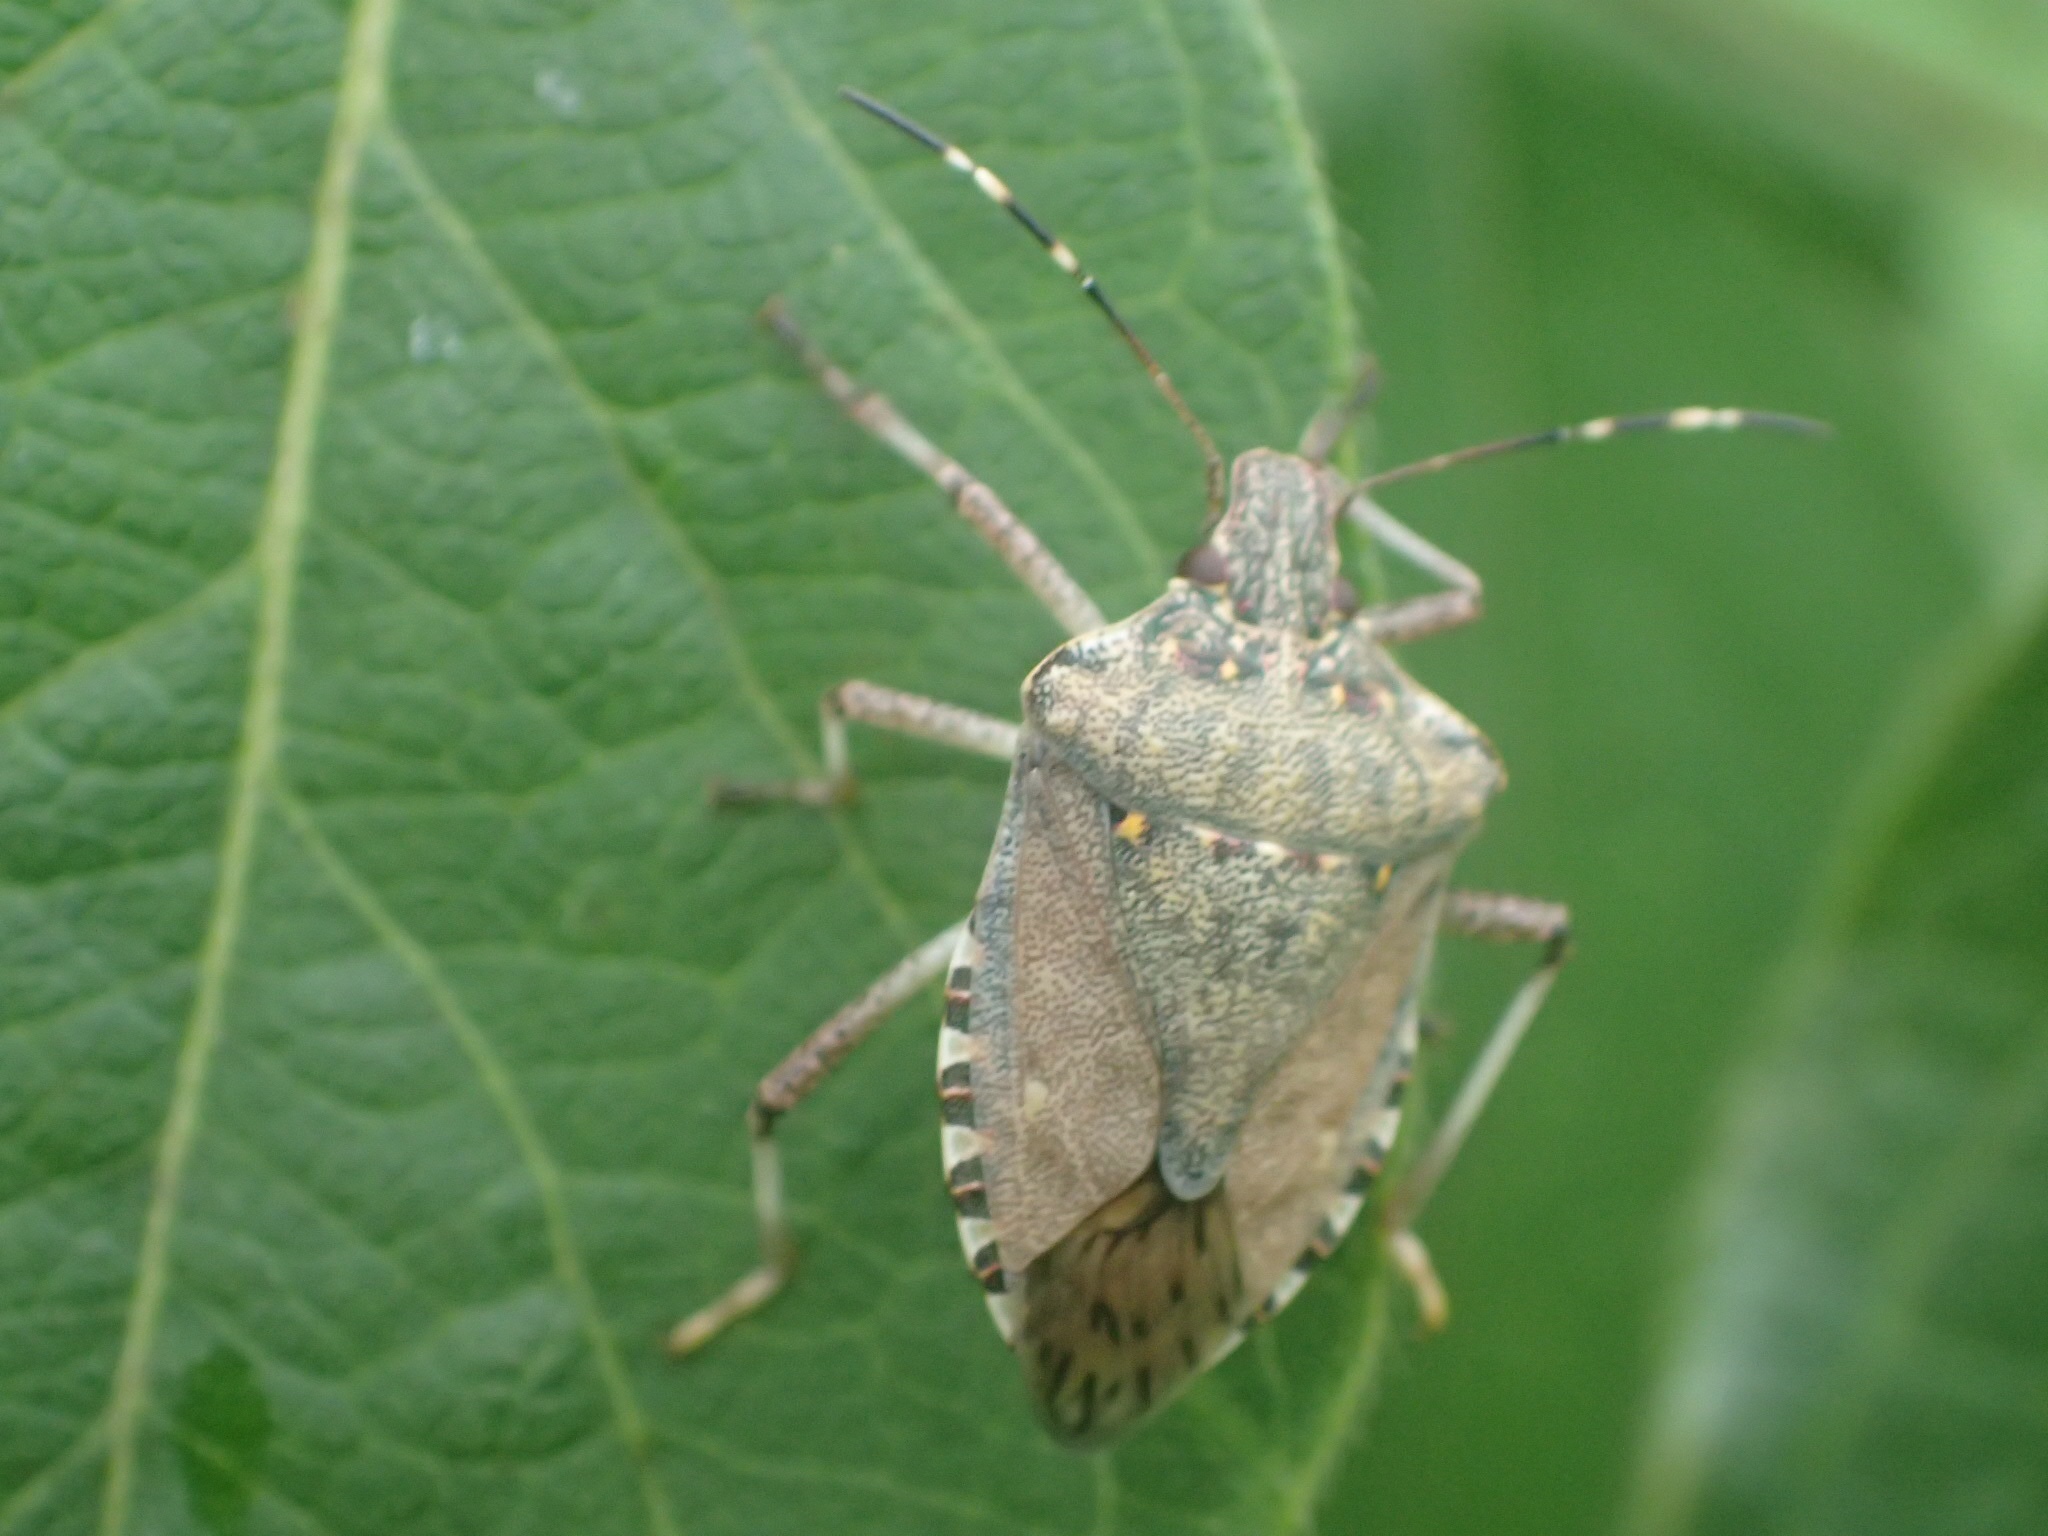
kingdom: Animalia
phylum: Arthropoda
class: Insecta
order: Hemiptera
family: Pentatomidae
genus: Halyomorpha
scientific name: Halyomorpha halys
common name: Brown marmorated stink bug
